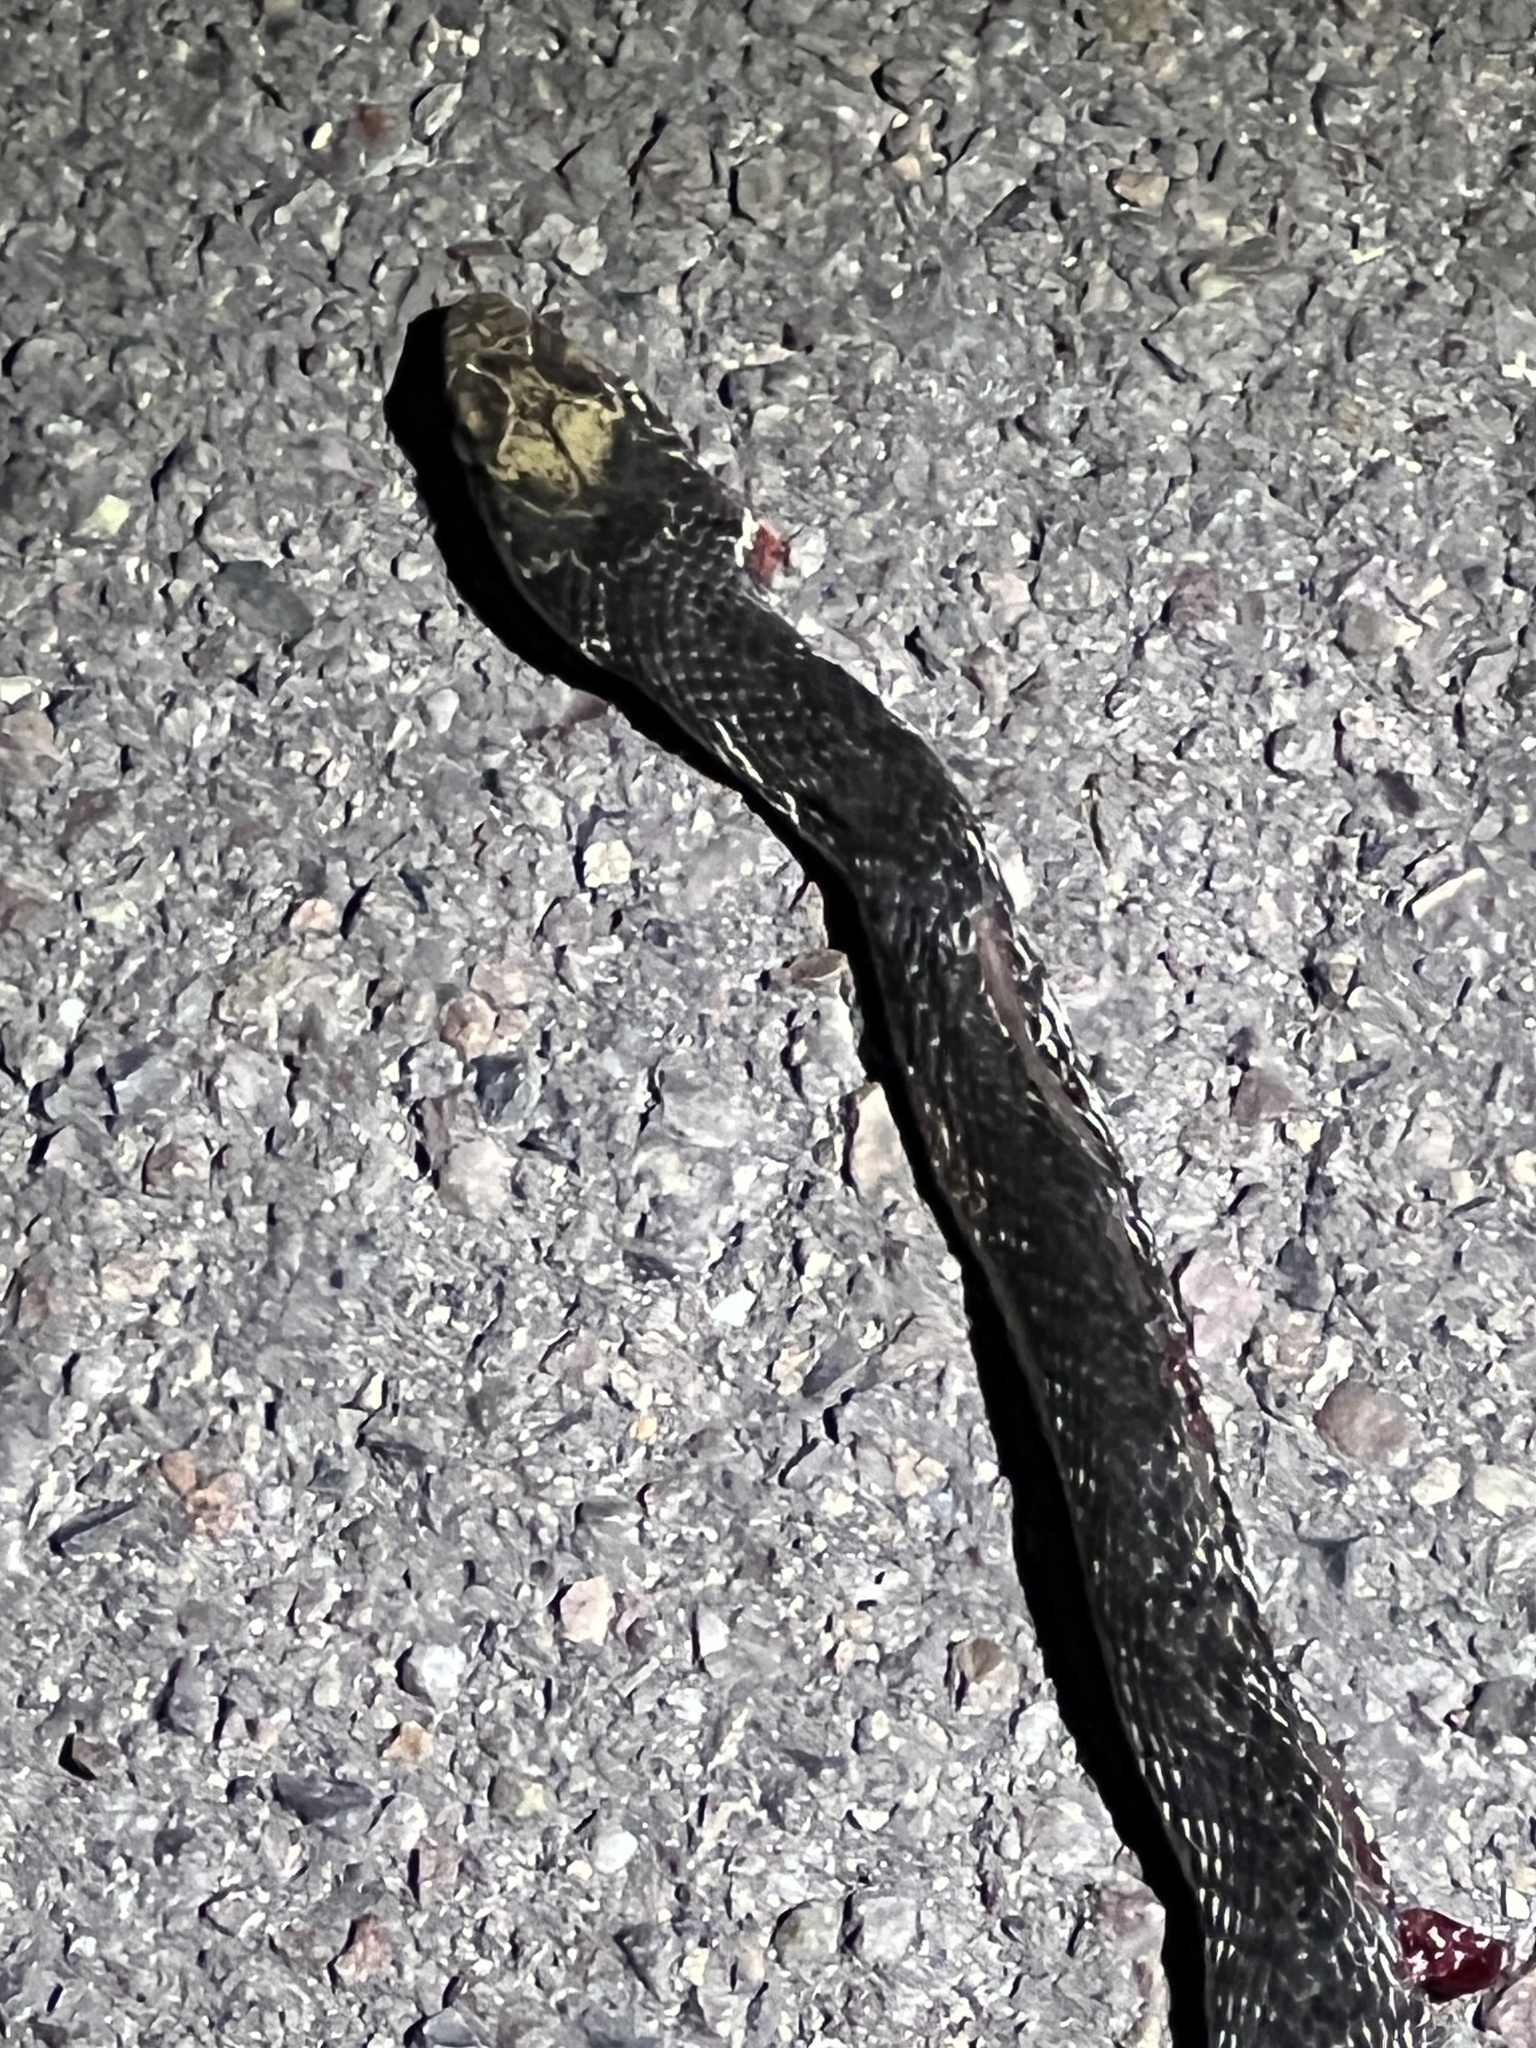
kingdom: Animalia
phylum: Chordata
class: Squamata
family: Colubridae
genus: Masticophis
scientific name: Masticophis flagellum
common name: Coachwhip
